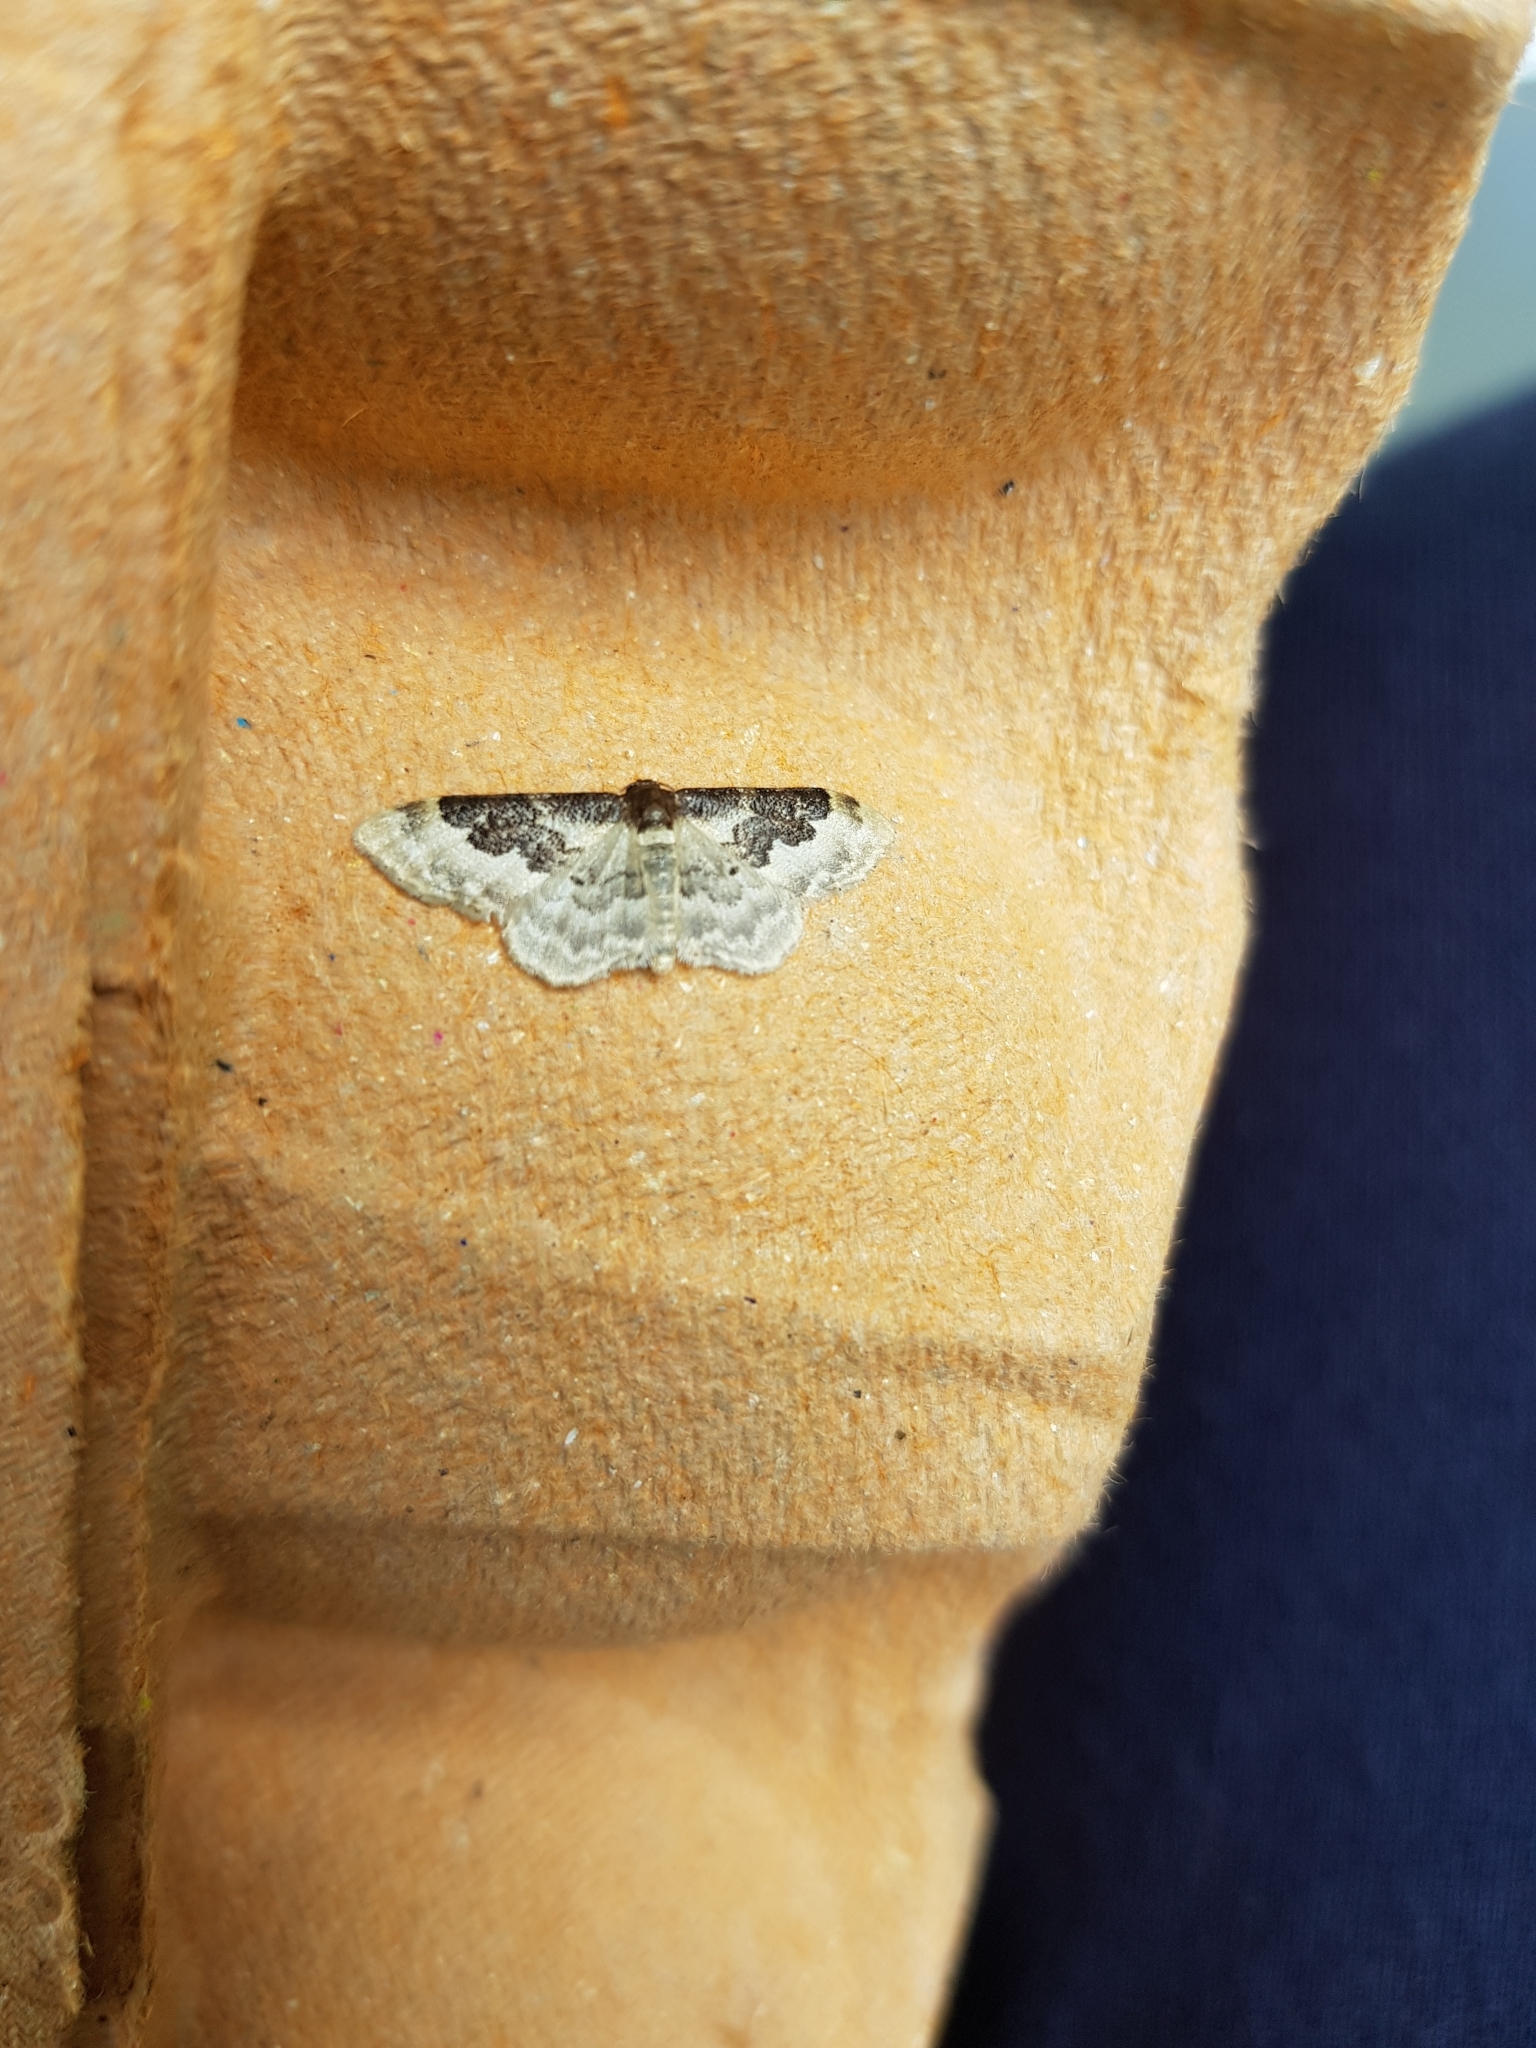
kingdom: Animalia
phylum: Arthropoda
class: Insecta
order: Lepidoptera
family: Geometridae
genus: Idaea
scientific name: Idaea rusticata
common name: Least carpet
